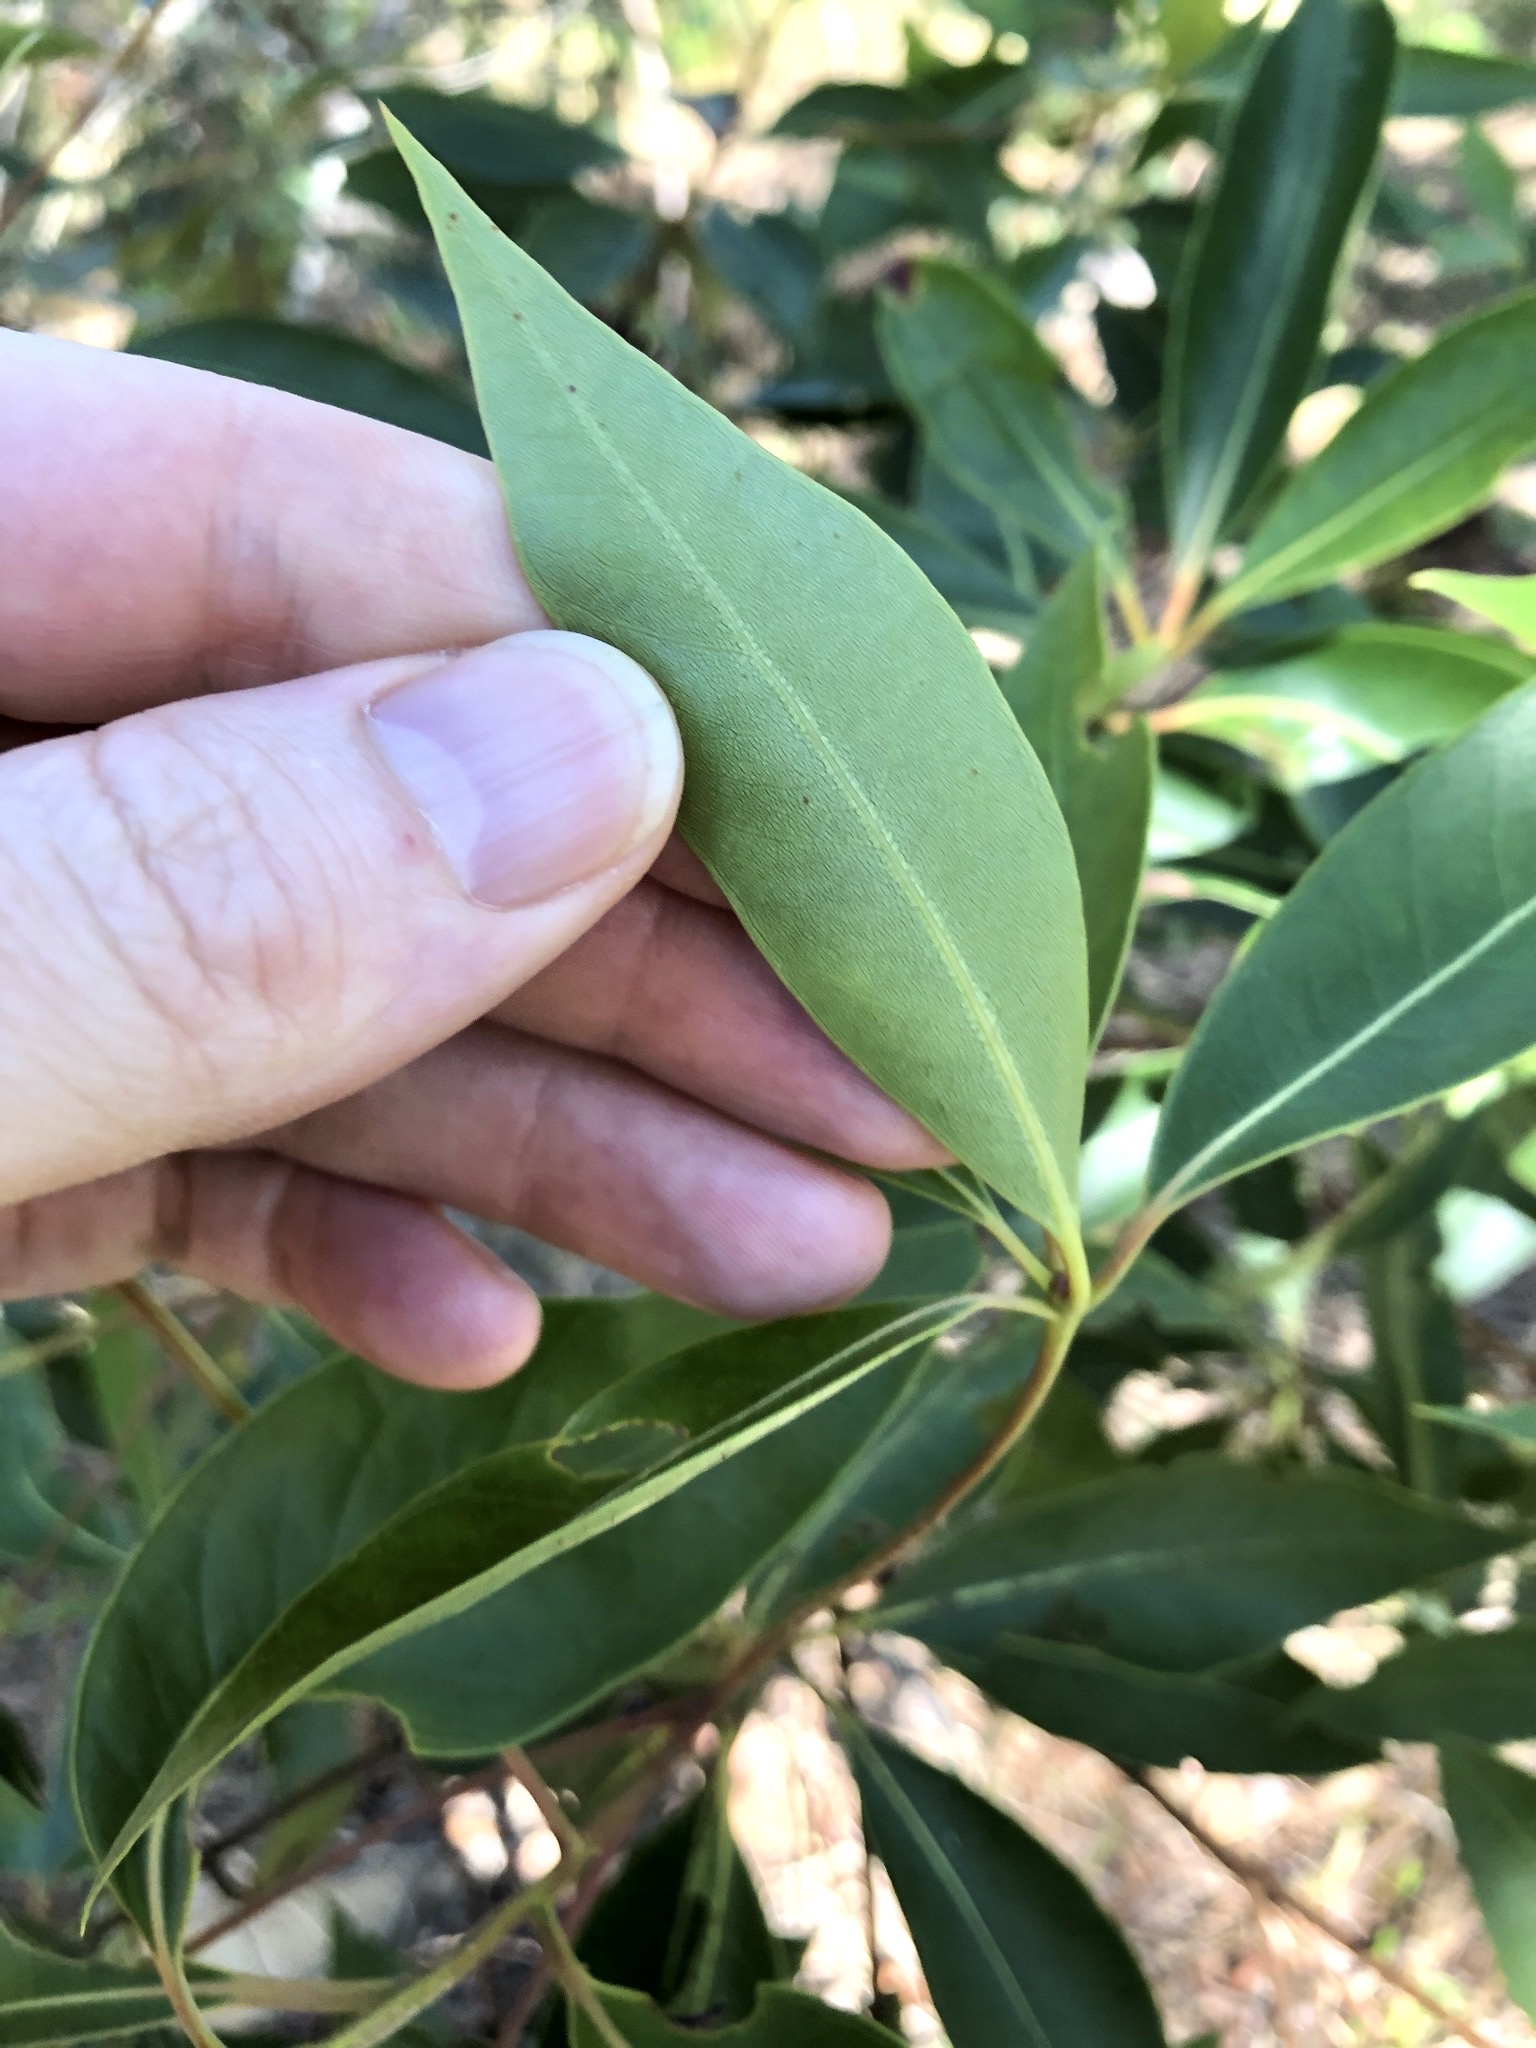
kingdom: Plantae
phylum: Tracheophyta
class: Magnoliopsida
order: Myrtales
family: Myrtaceae
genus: Lophostemon
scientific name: Lophostemon confertus
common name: Brisbane box
